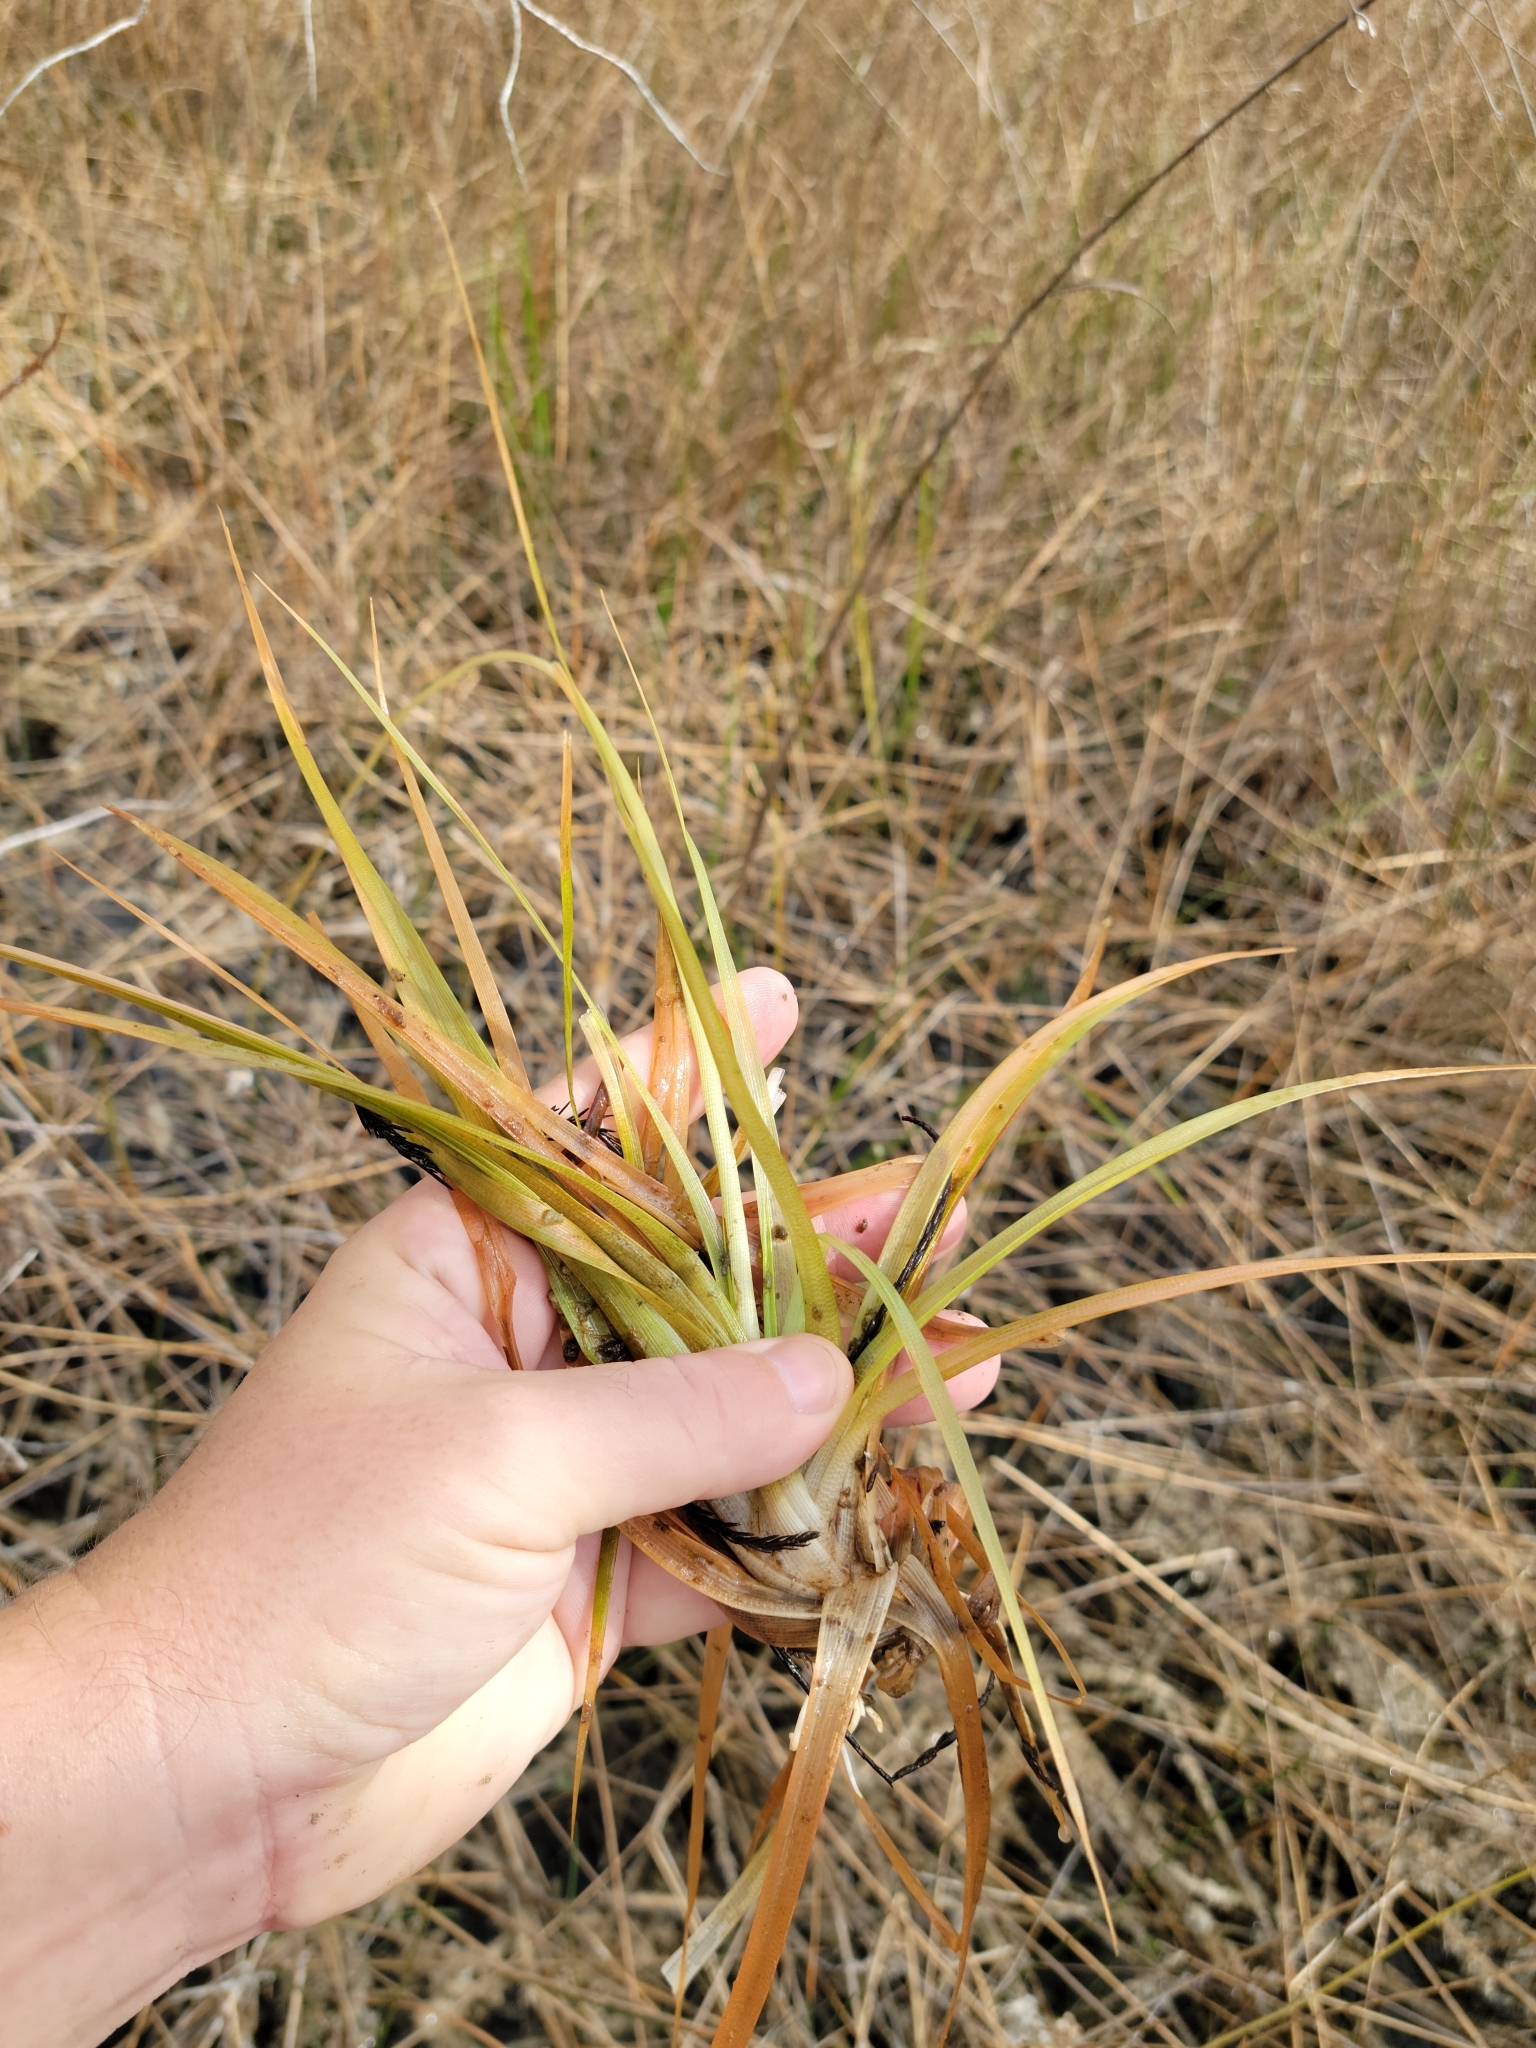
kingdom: Plantae
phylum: Tracheophyta
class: Liliopsida
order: Poales
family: Eriocaulaceae
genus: Eriocaulon
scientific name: Eriocaulon compressum
